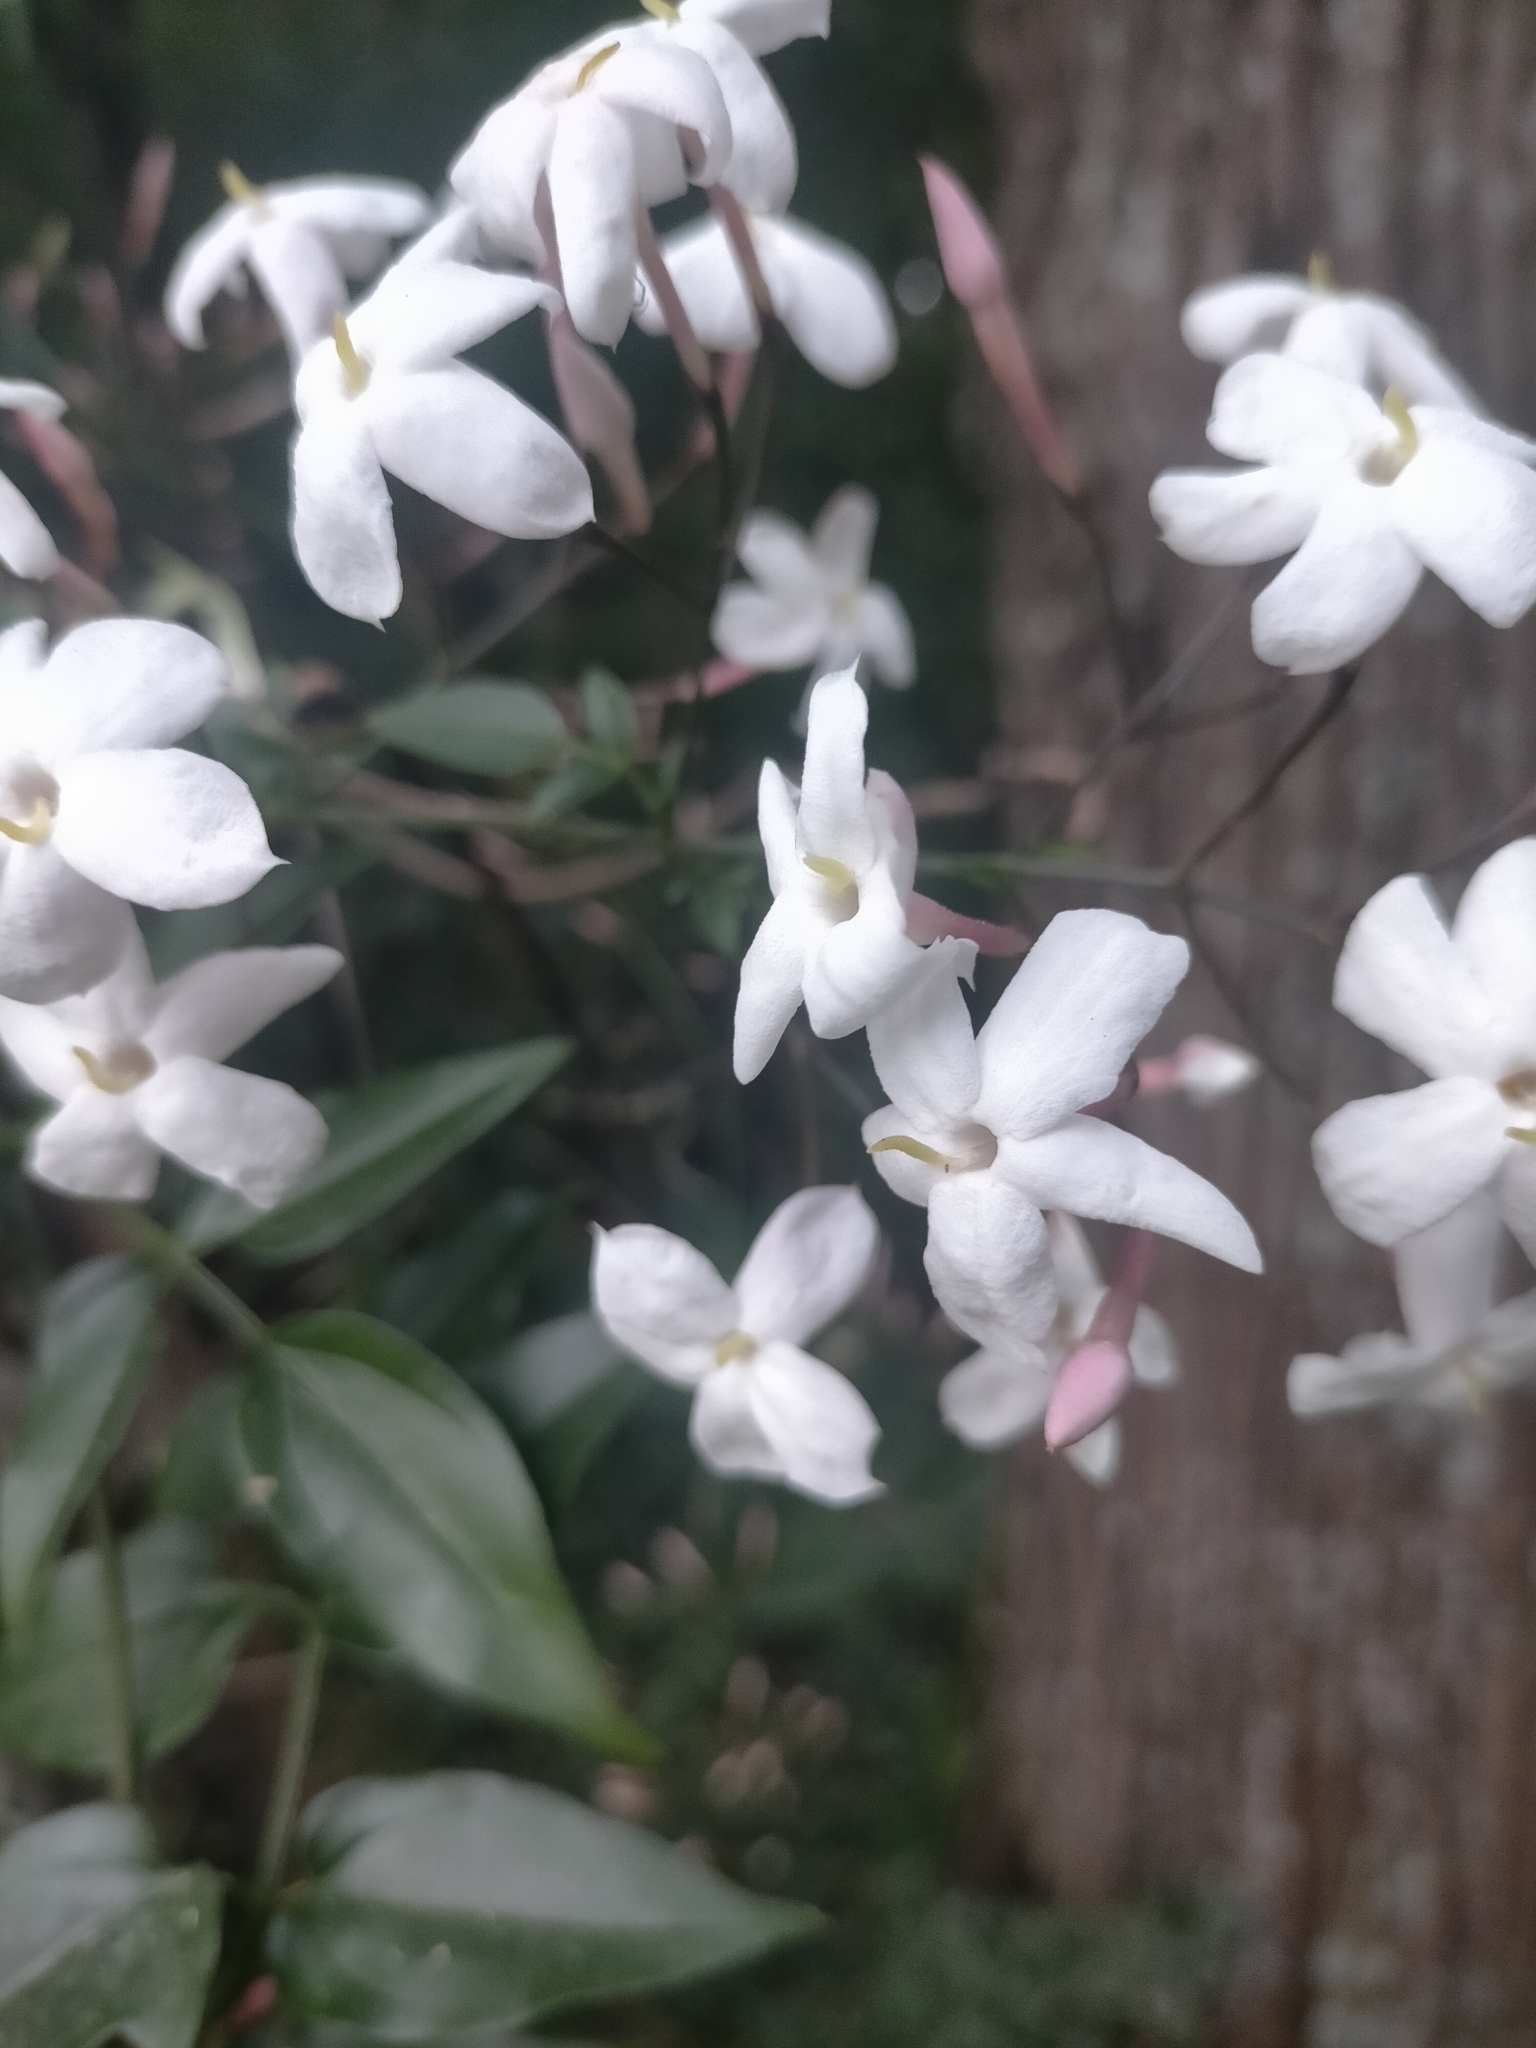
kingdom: Plantae
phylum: Tracheophyta
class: Magnoliopsida
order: Lamiales
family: Oleaceae
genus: Jasminum
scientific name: Jasminum polyanthum
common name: Pink jasmine
